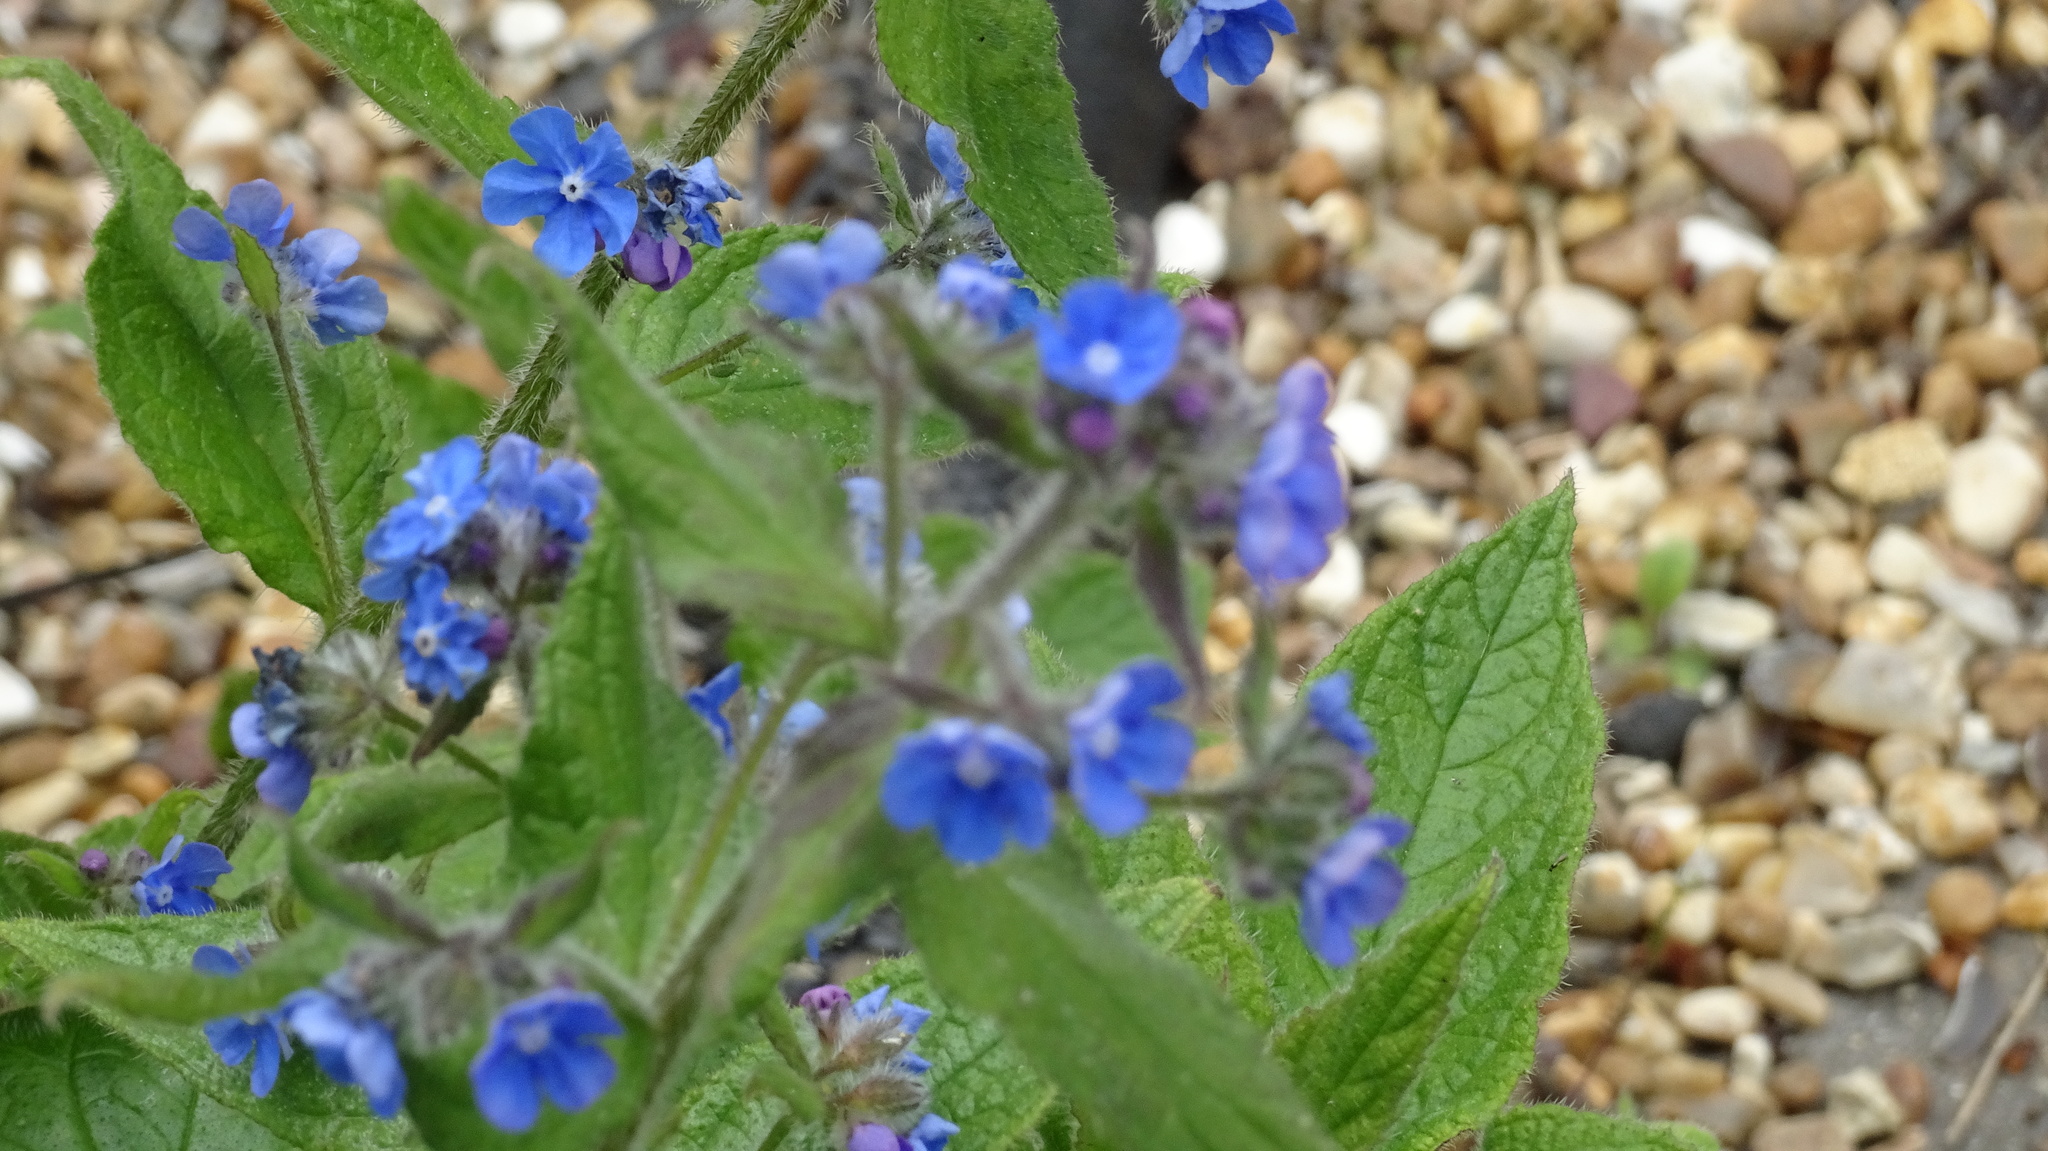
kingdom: Plantae
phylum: Tracheophyta
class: Magnoliopsida
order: Boraginales
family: Boraginaceae
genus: Pentaglottis
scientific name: Pentaglottis sempervirens
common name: Green alkanet
